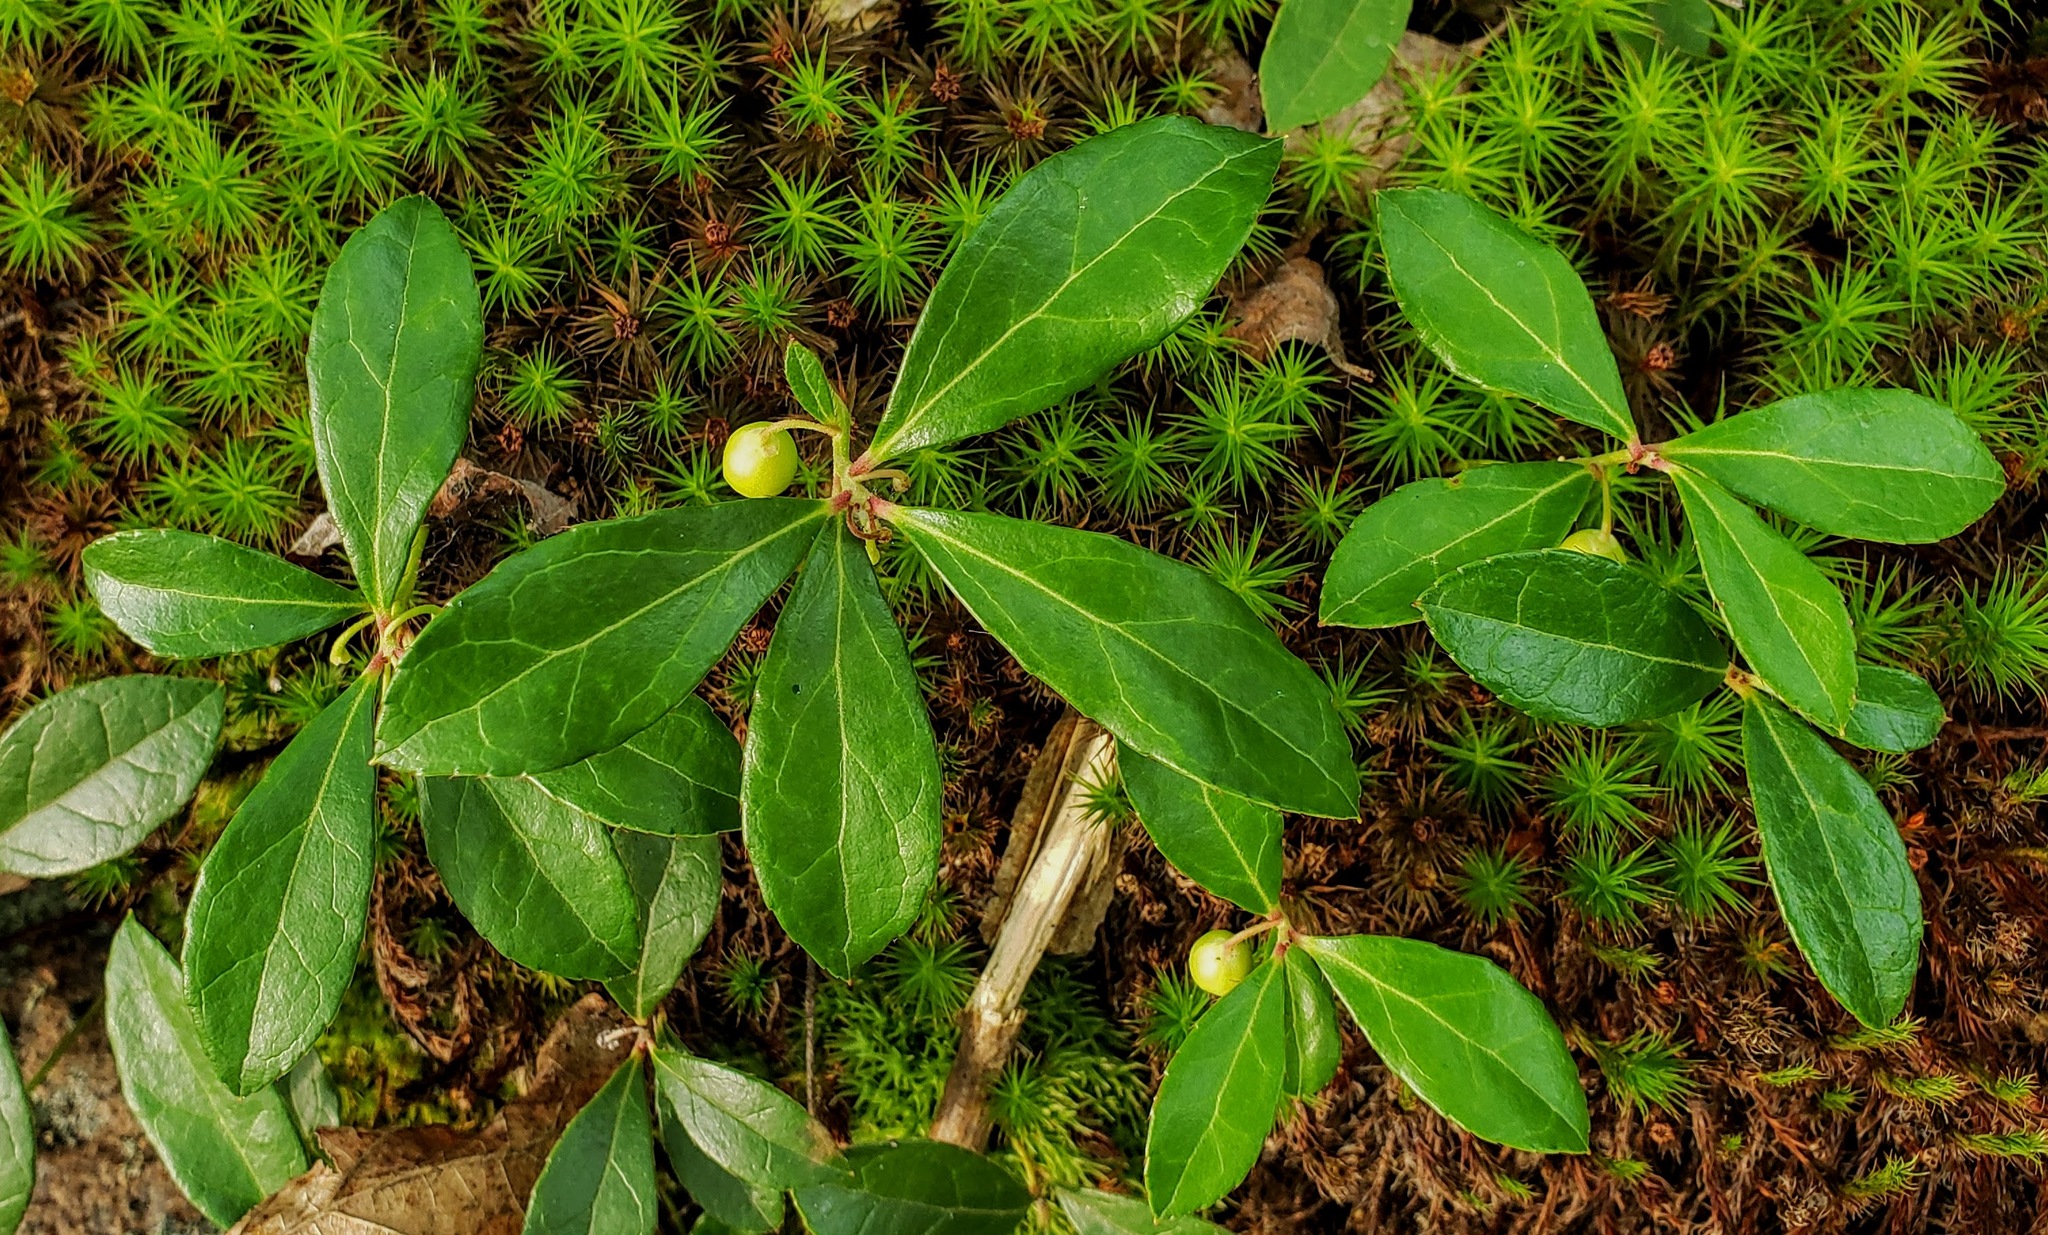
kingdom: Plantae
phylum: Tracheophyta
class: Magnoliopsida
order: Ericales
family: Ericaceae
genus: Gaultheria
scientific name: Gaultheria procumbens
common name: Checkerberry
